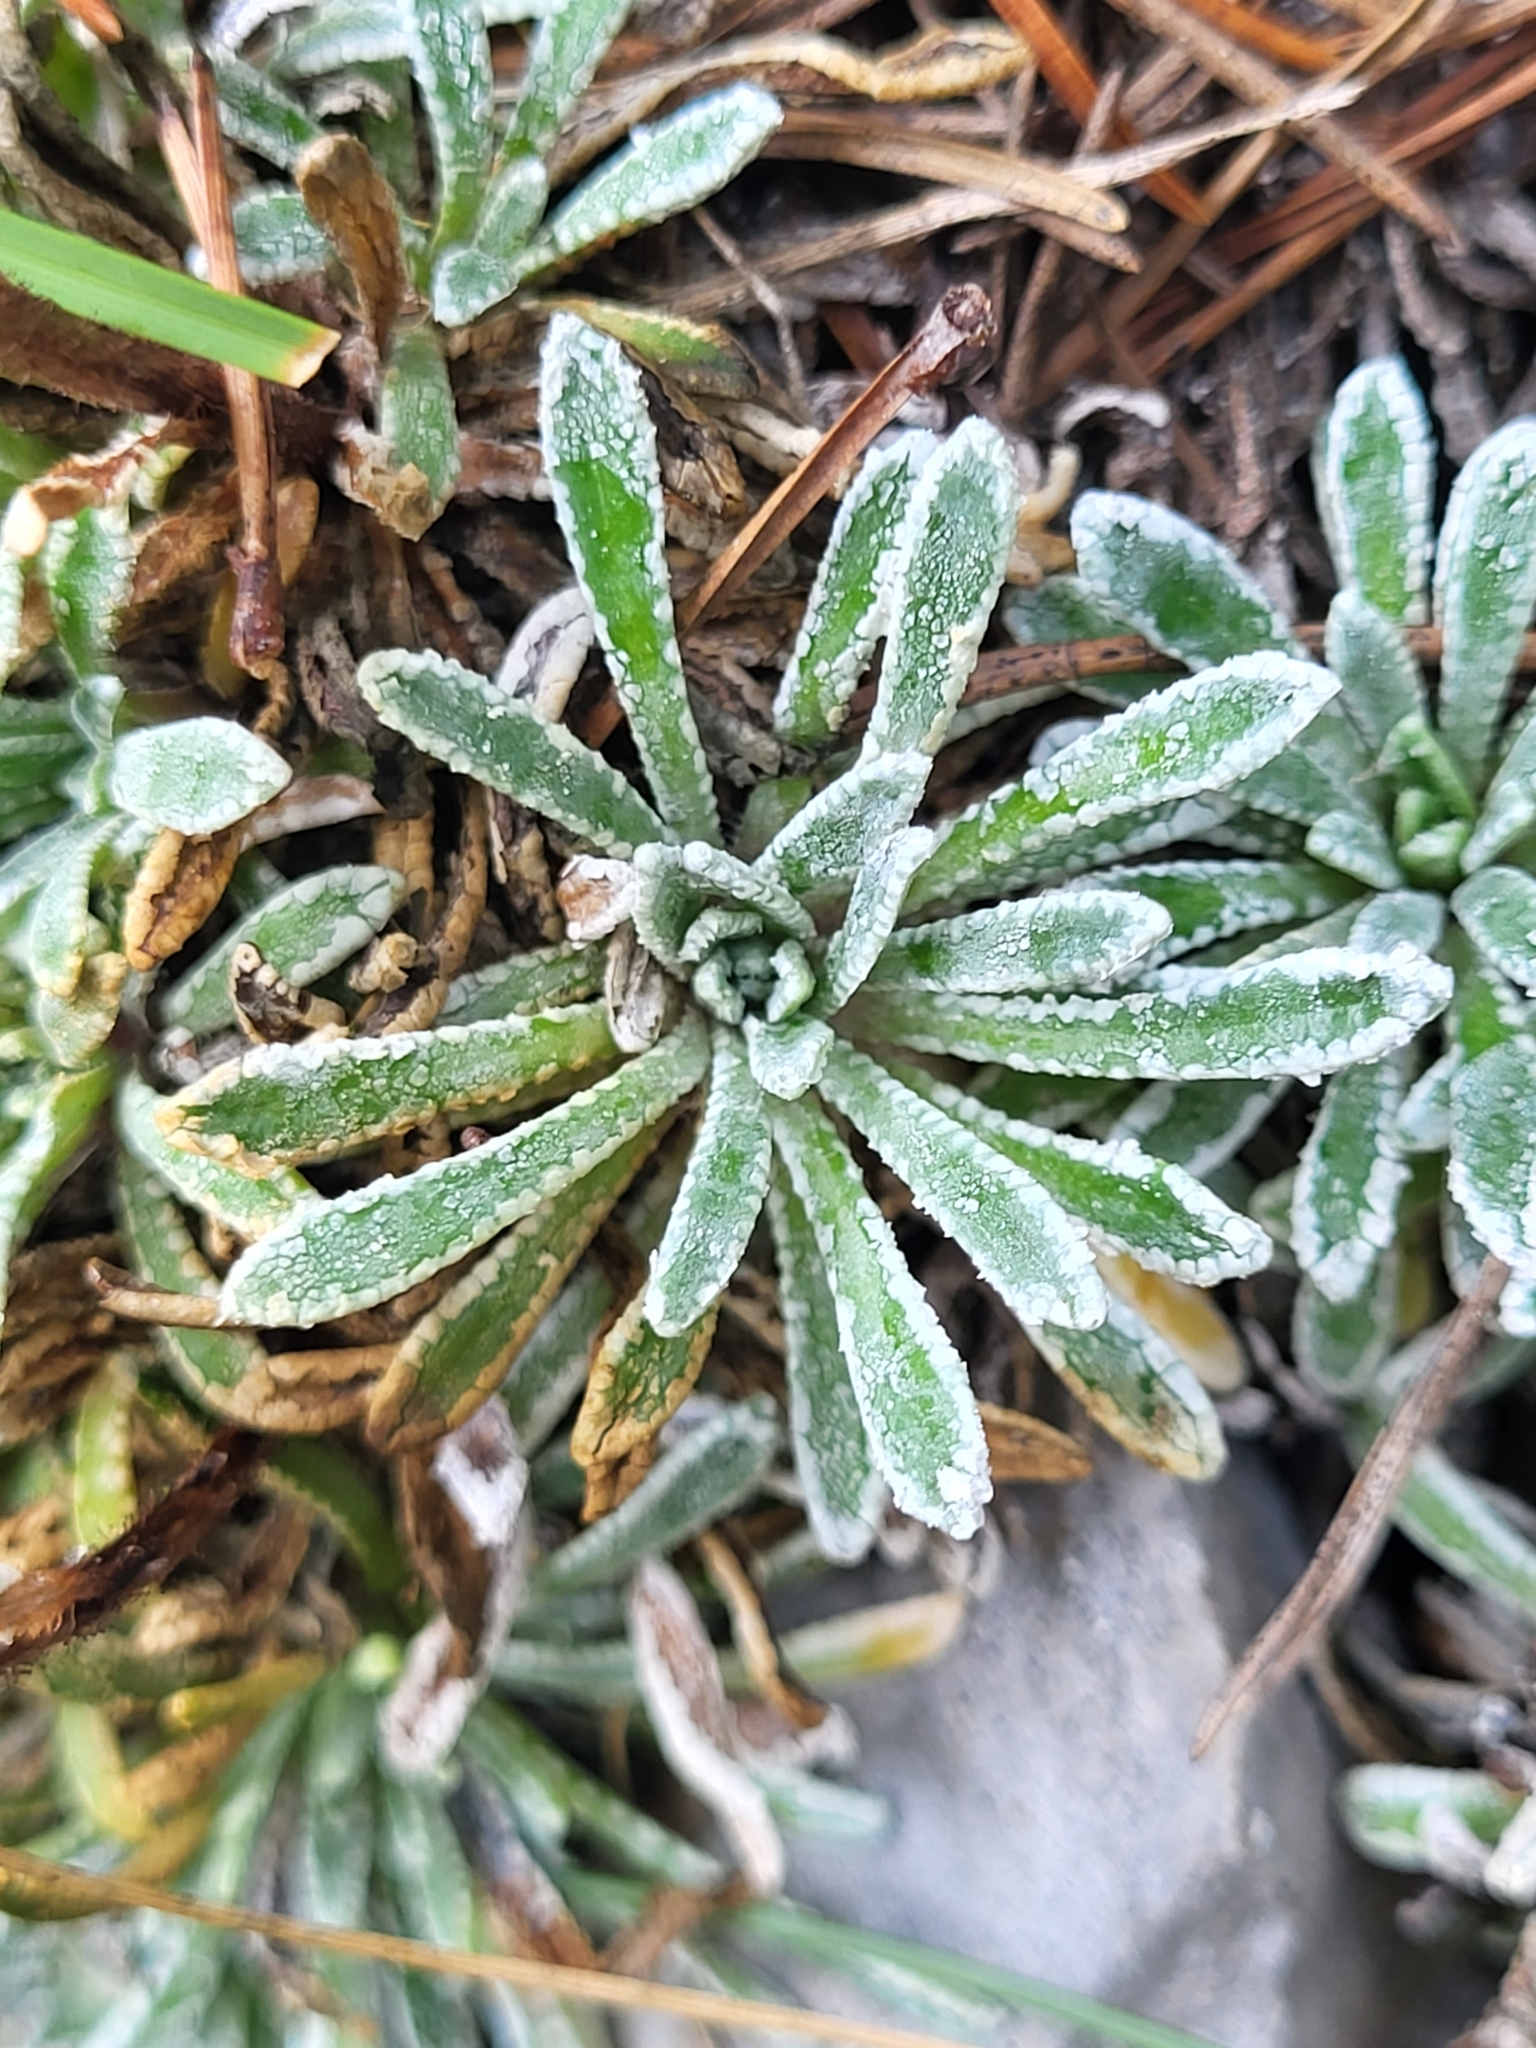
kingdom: Plantae
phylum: Tracheophyta
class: Magnoliopsida
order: Saxifragales
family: Saxifragaceae
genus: Saxifraga
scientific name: Saxifraga crustata
